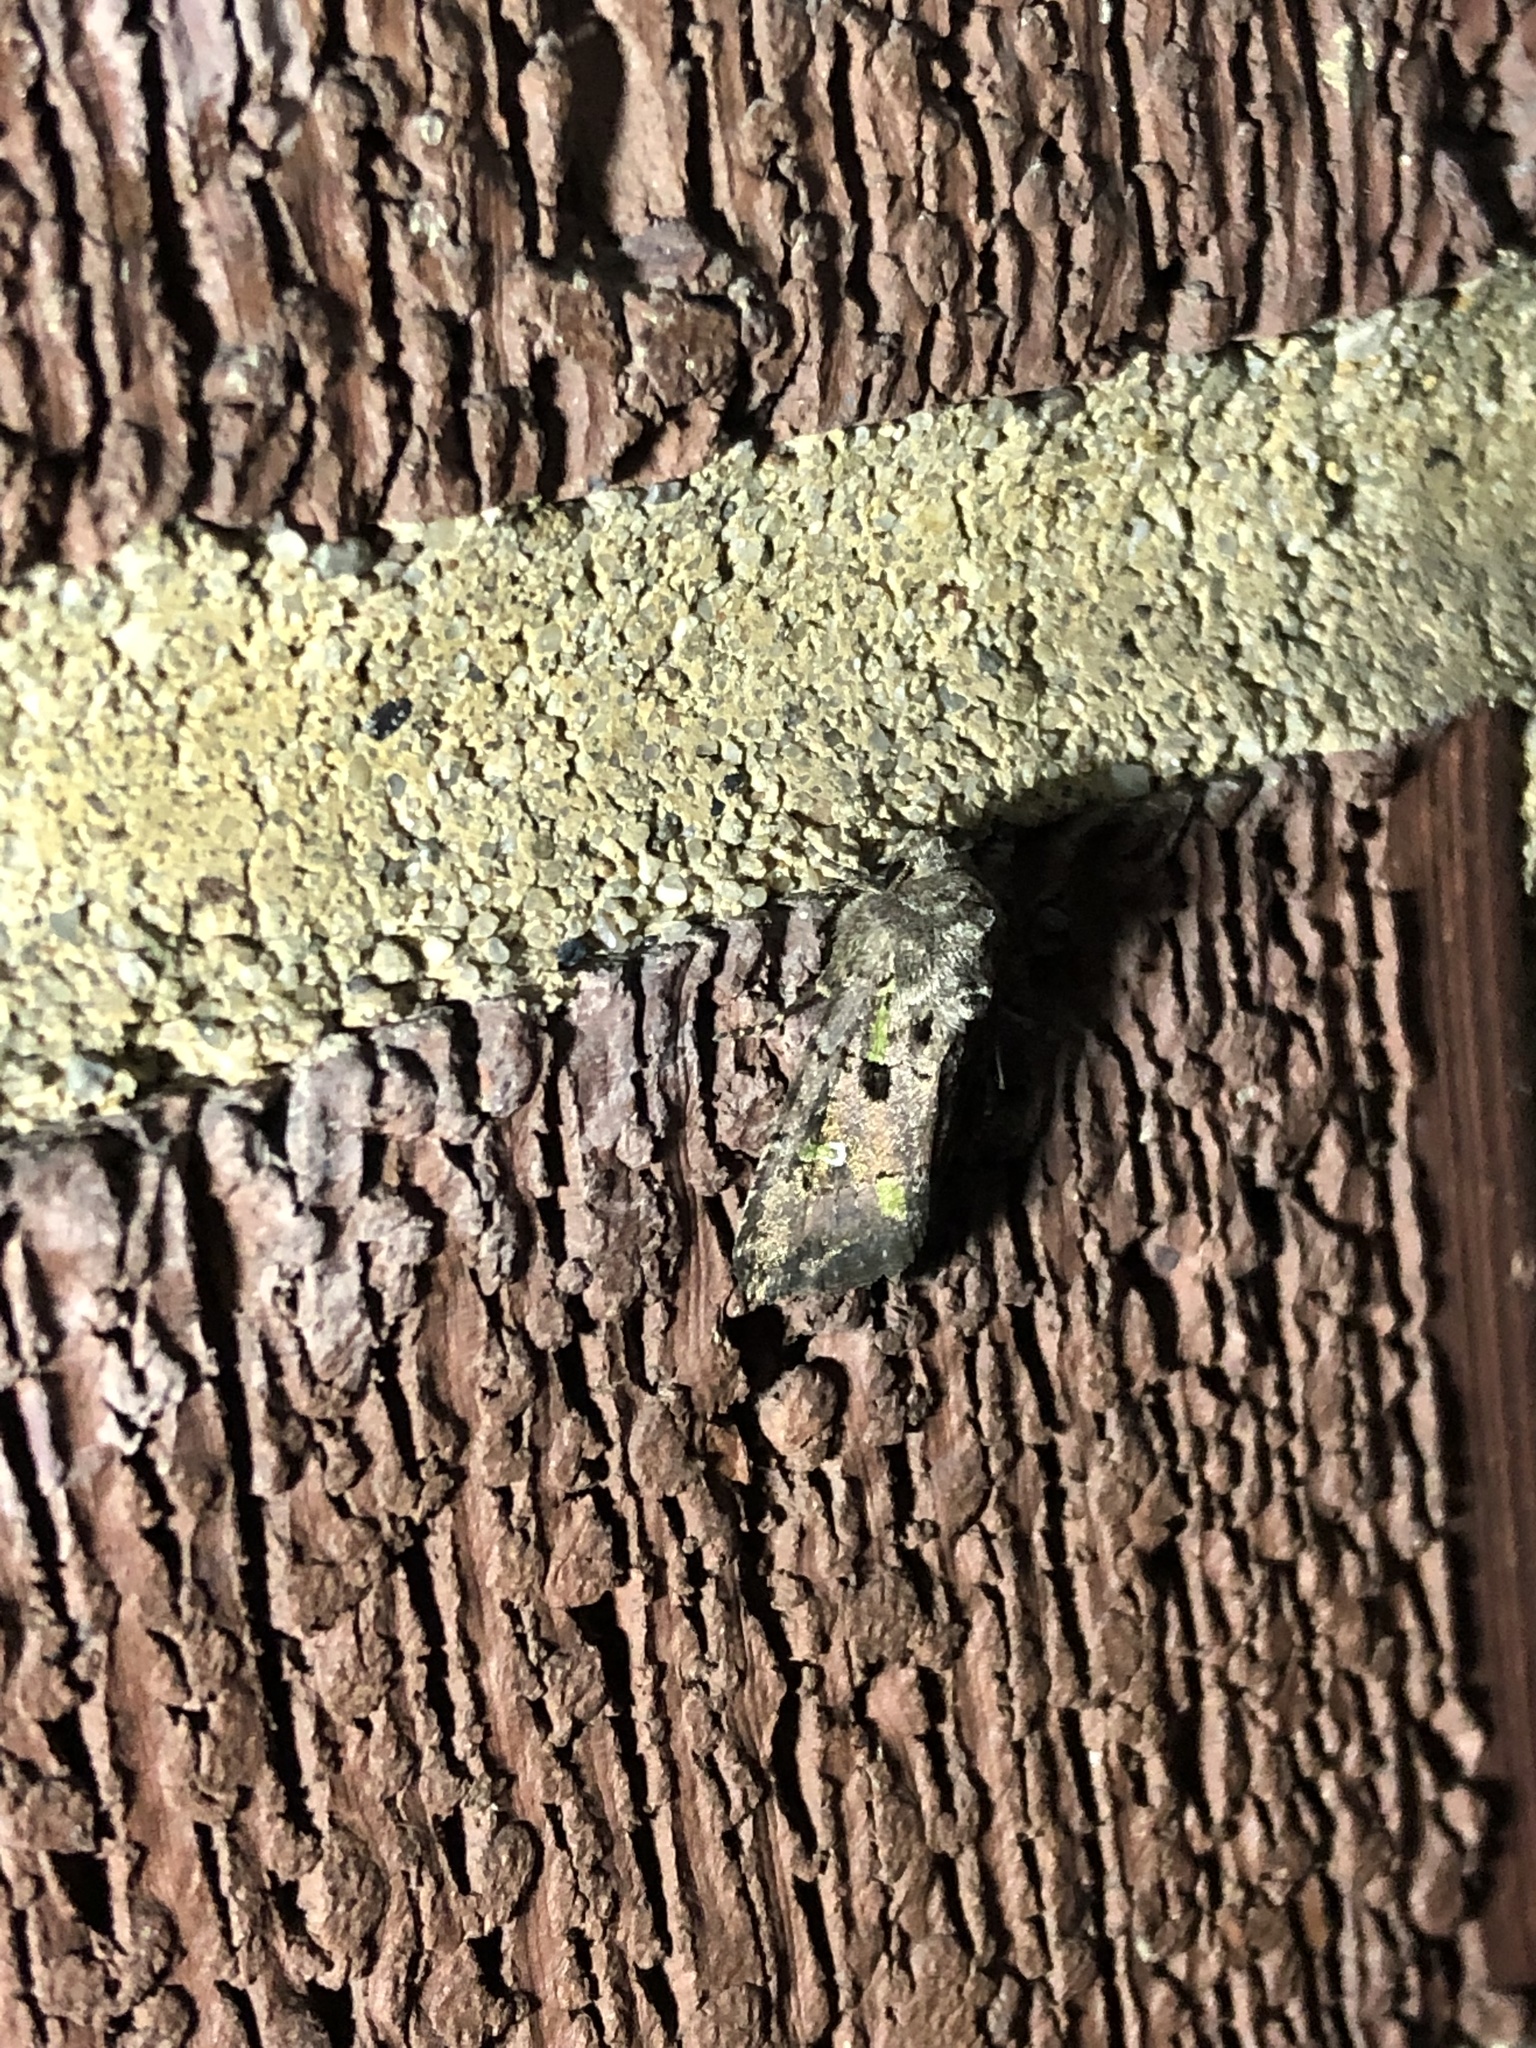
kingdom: Animalia
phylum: Arthropoda
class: Insecta
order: Lepidoptera
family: Noctuidae
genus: Lacinipolia
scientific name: Lacinipolia renigera
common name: Kidney-spotted minor
